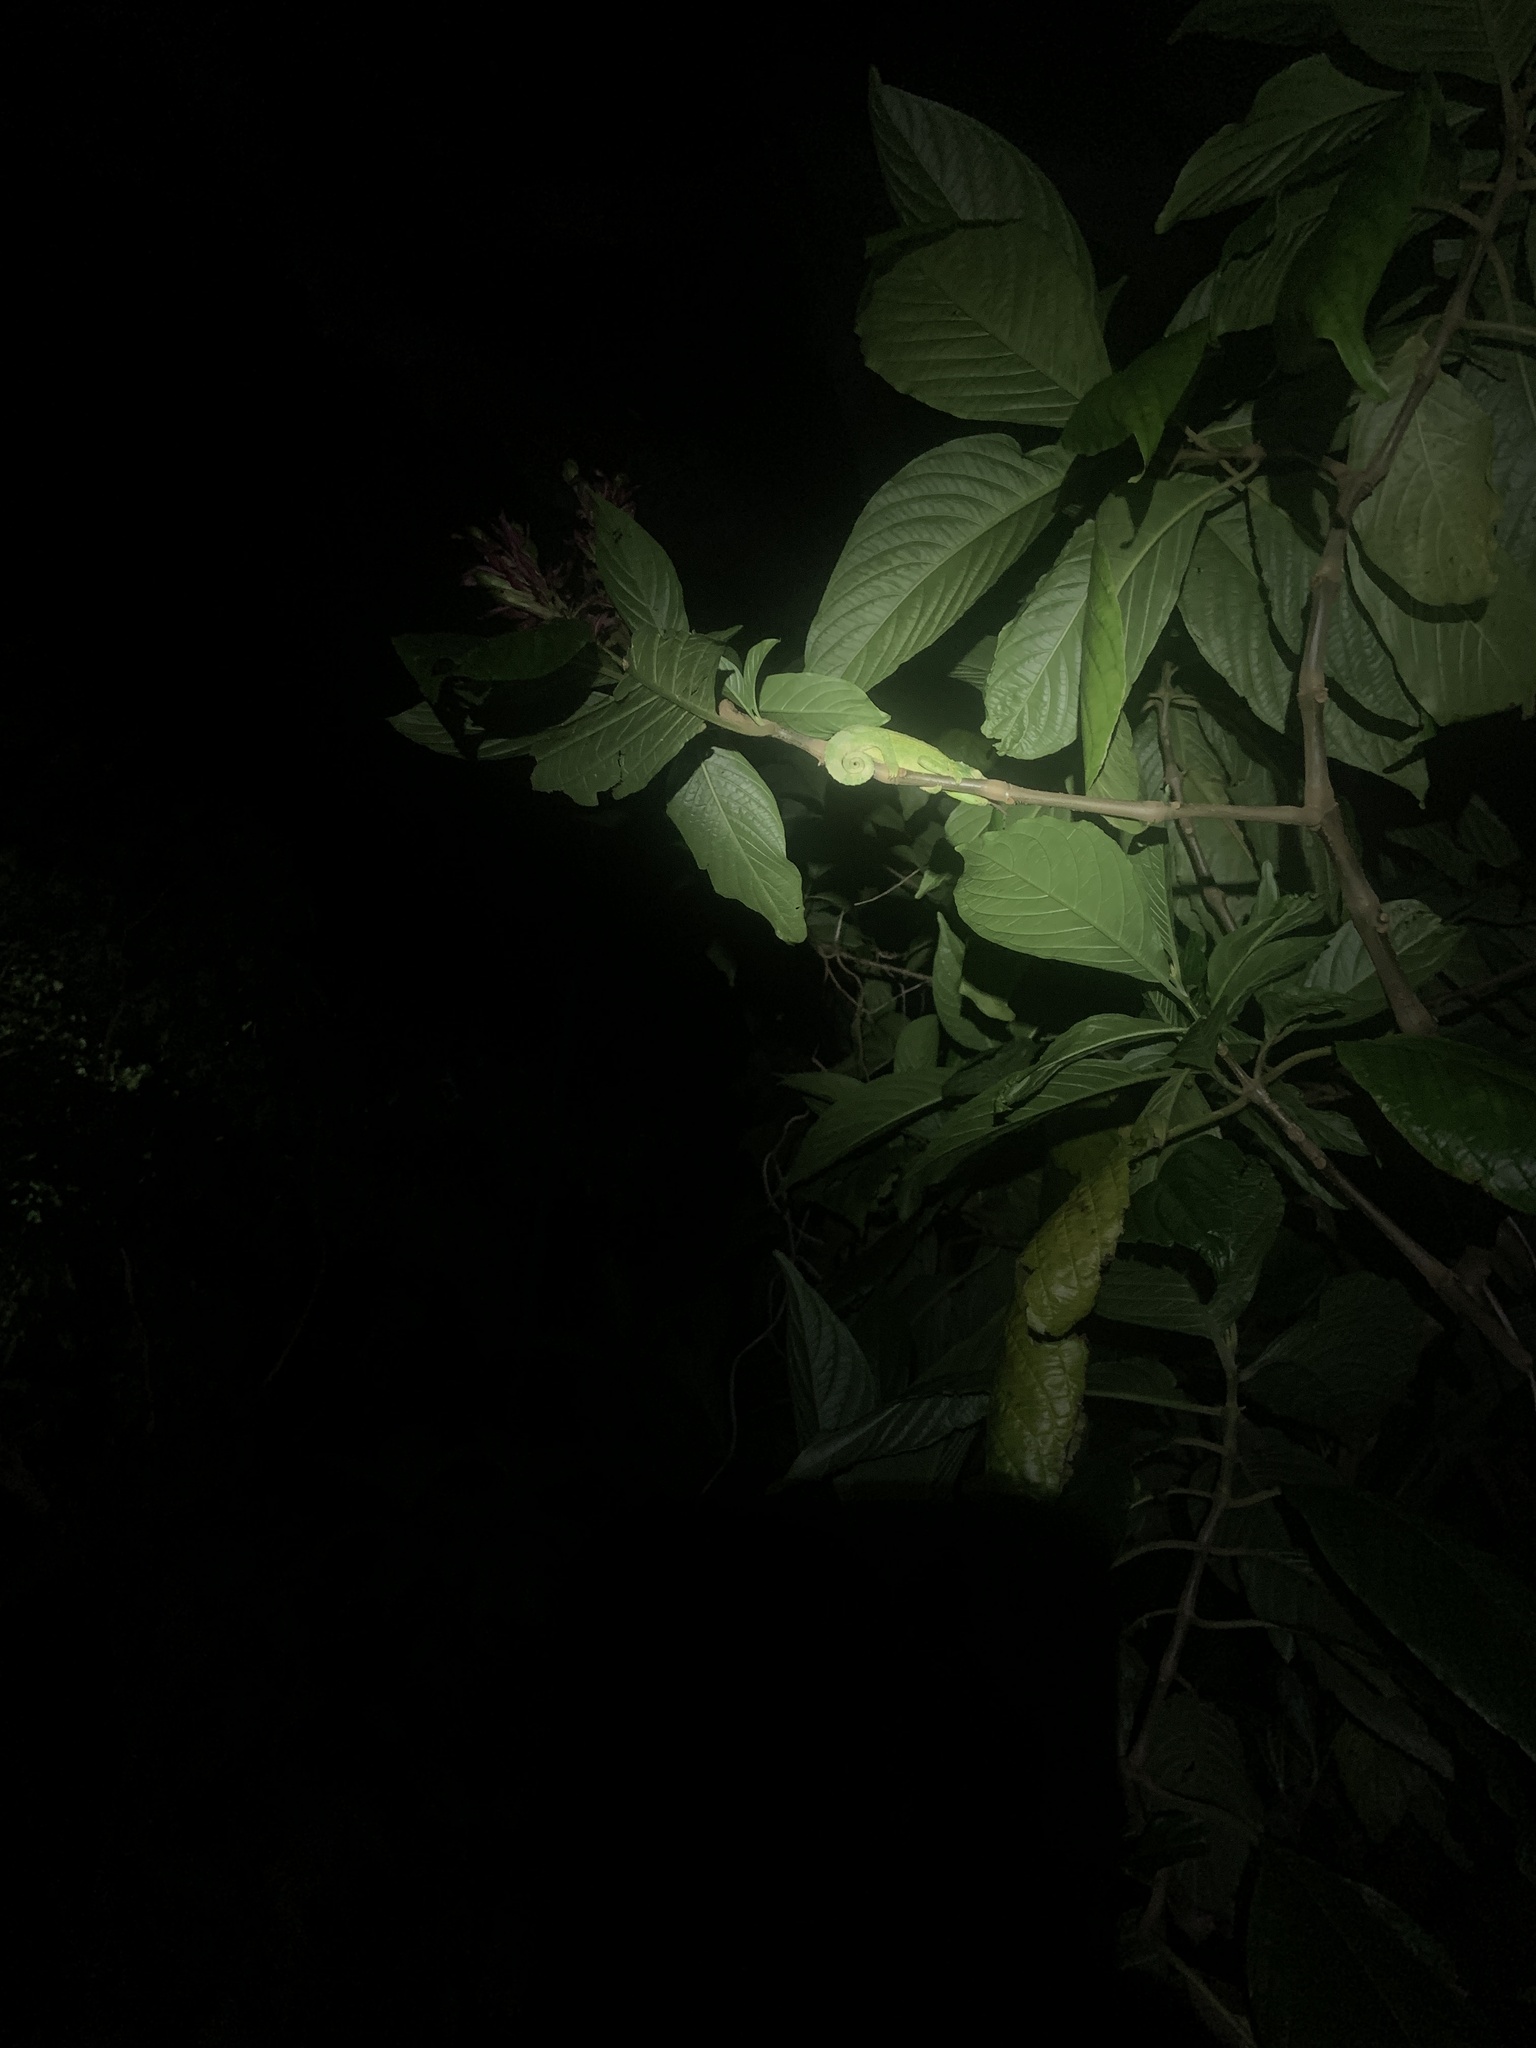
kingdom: Animalia
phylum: Chordata
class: Squamata
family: Chamaeleonidae
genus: Trioceros
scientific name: Trioceros jacksonii
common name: Jackson's chameleon
